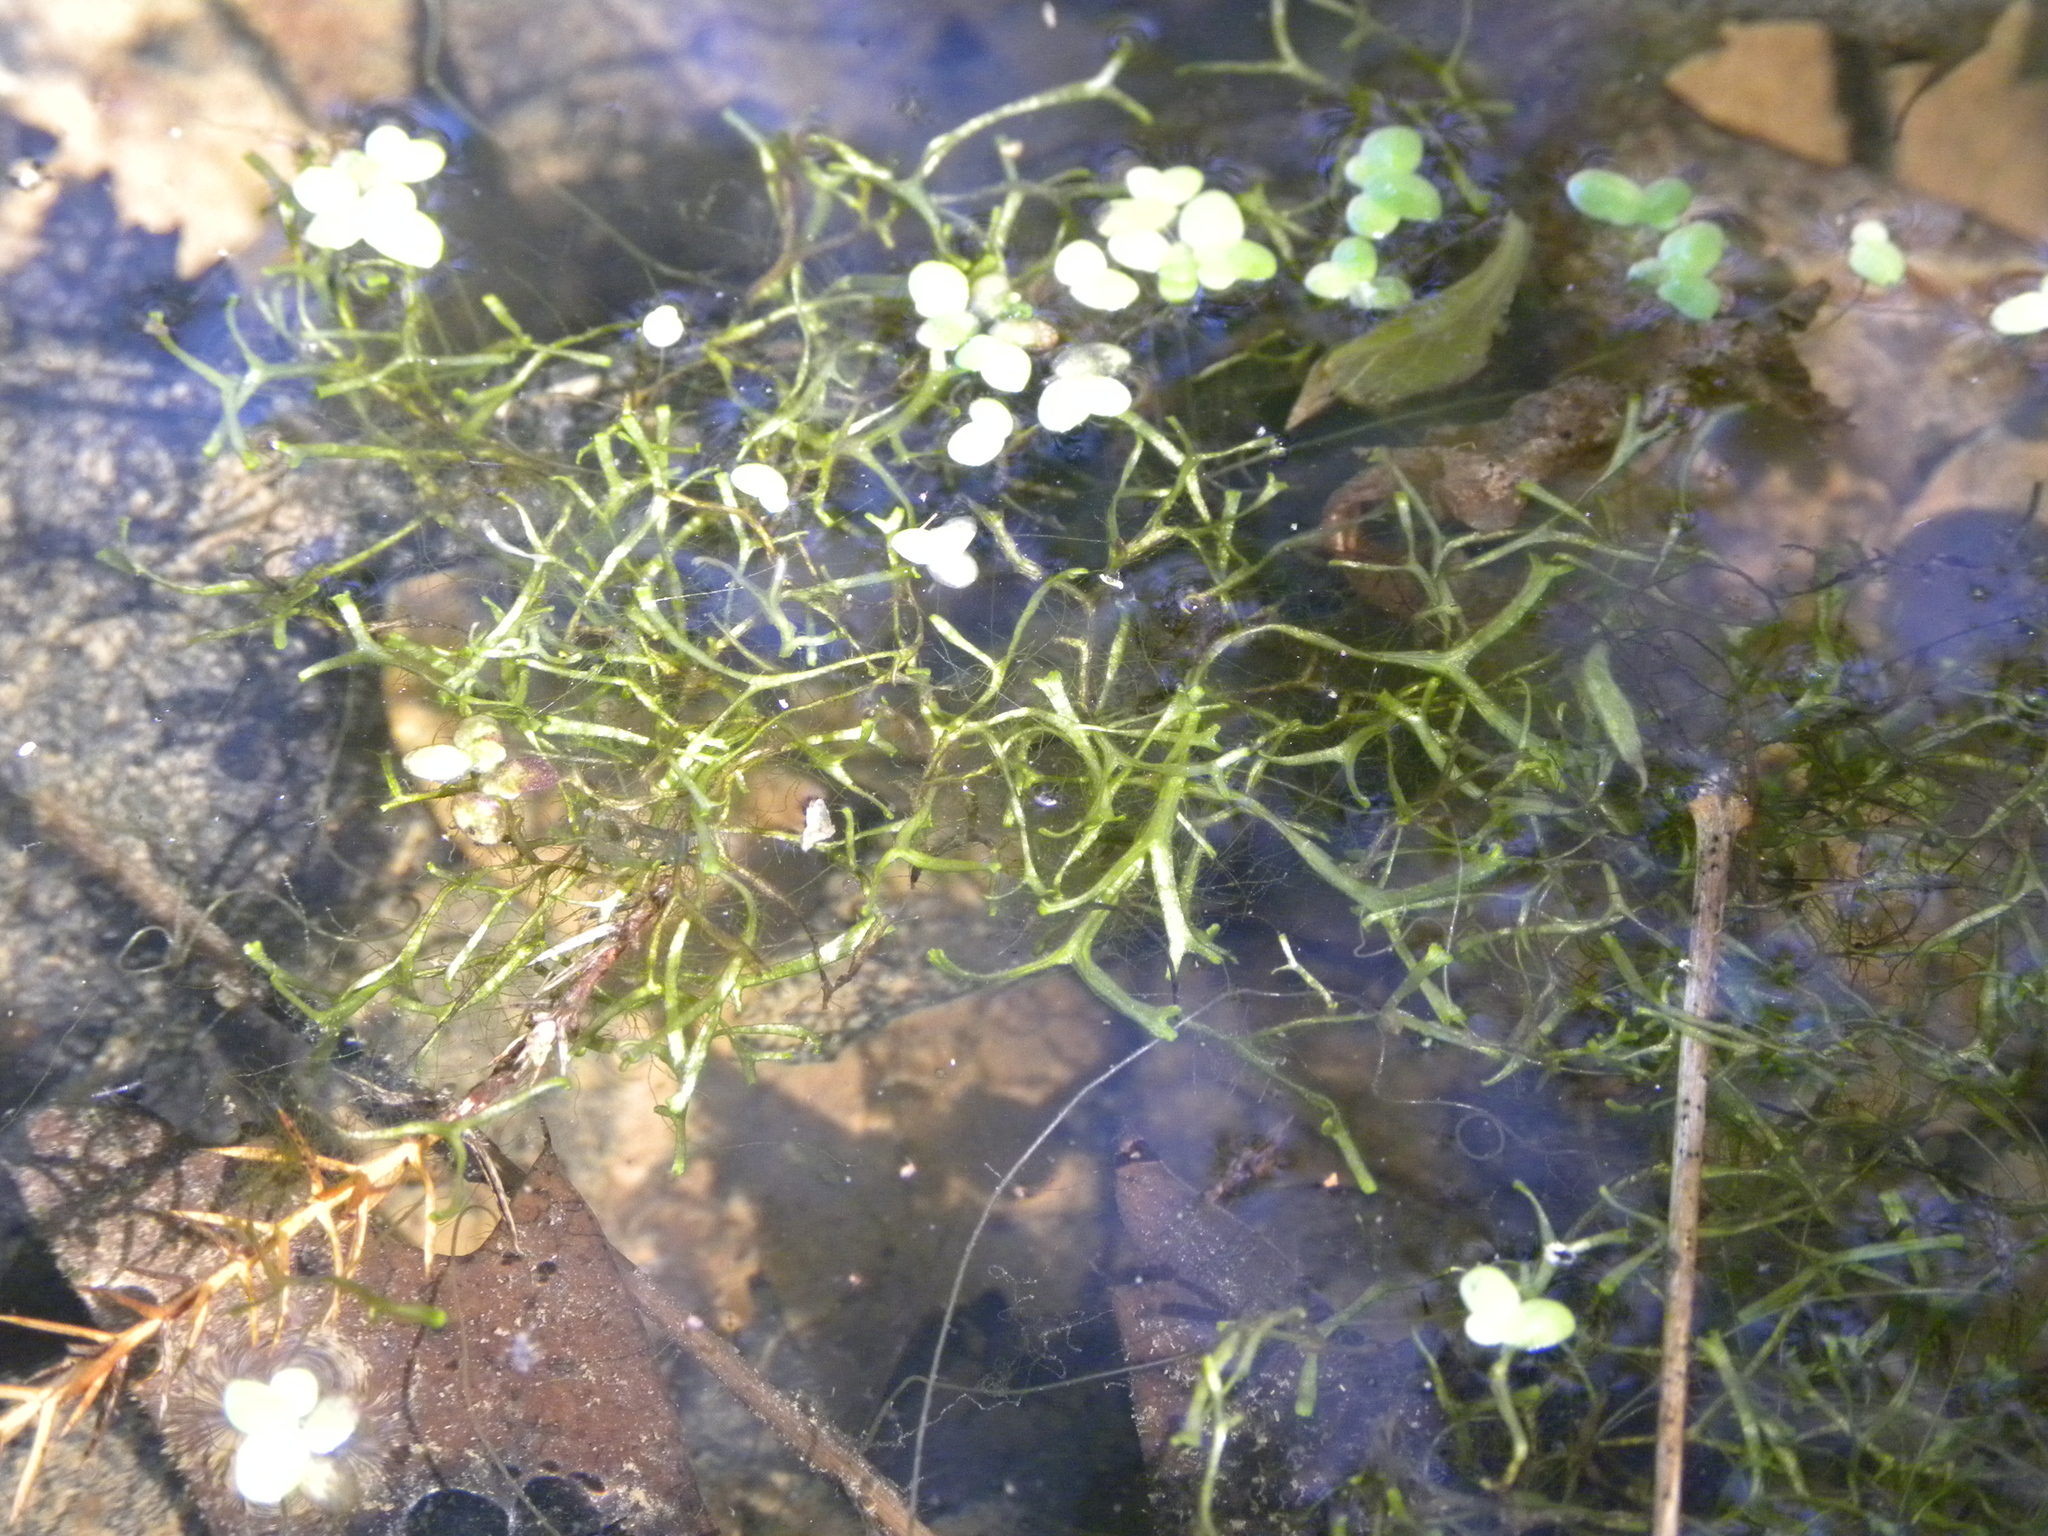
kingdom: Plantae
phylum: Marchantiophyta
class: Marchantiopsida
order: Marchantiales
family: Ricciaceae
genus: Riccia
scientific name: Riccia fluitans
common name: Floating crystalwort
